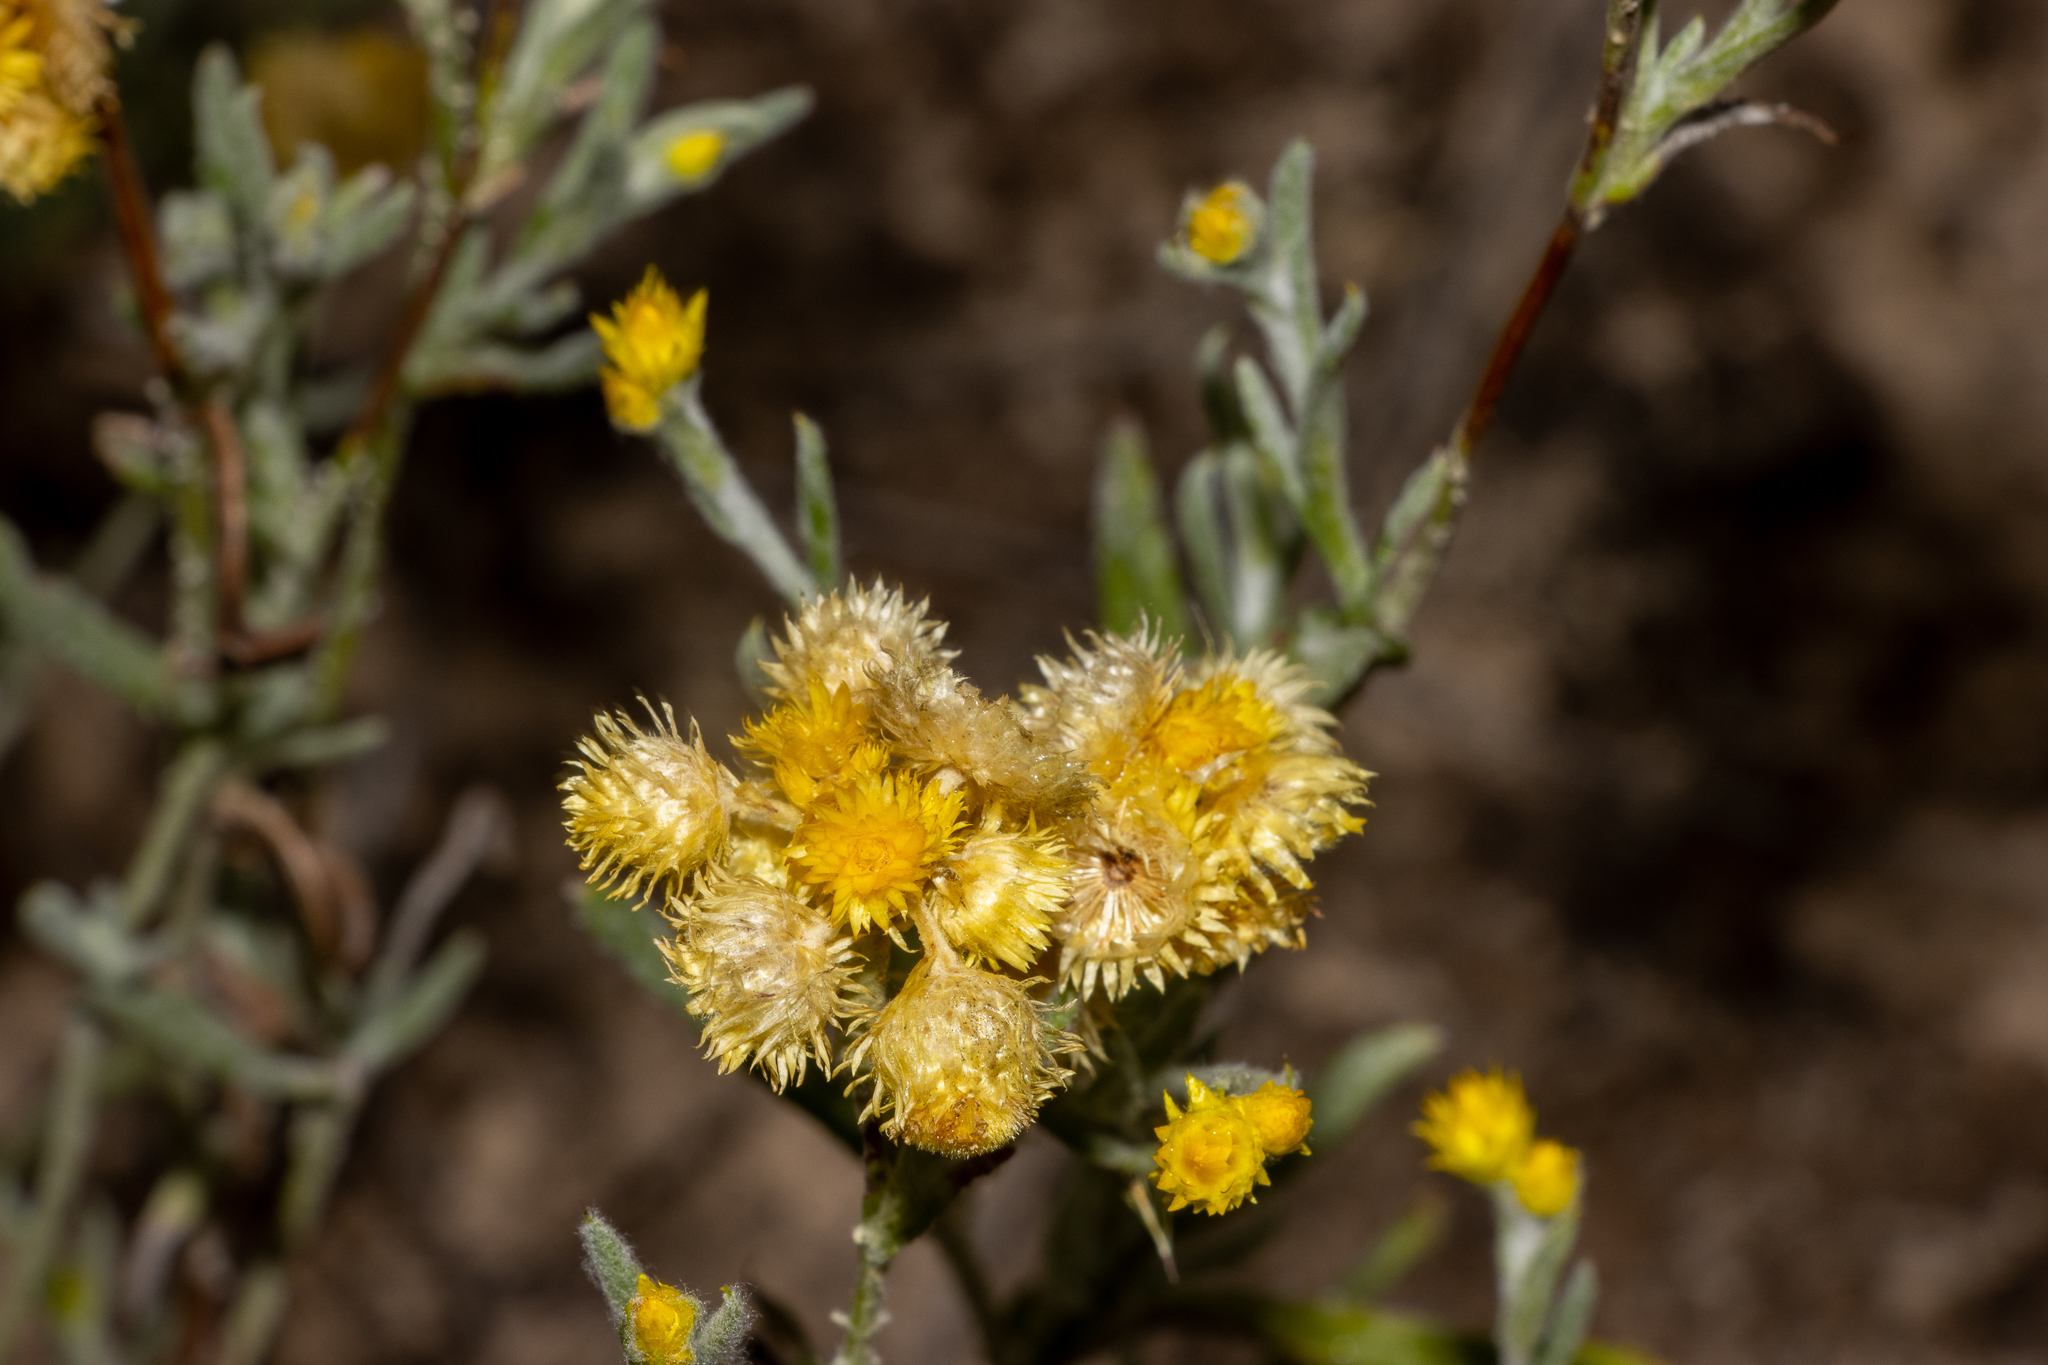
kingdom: Plantae
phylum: Tracheophyta
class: Magnoliopsida
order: Asterales
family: Asteraceae
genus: Chrysocephalum
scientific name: Chrysocephalum apiculatum
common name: Common everlasting
